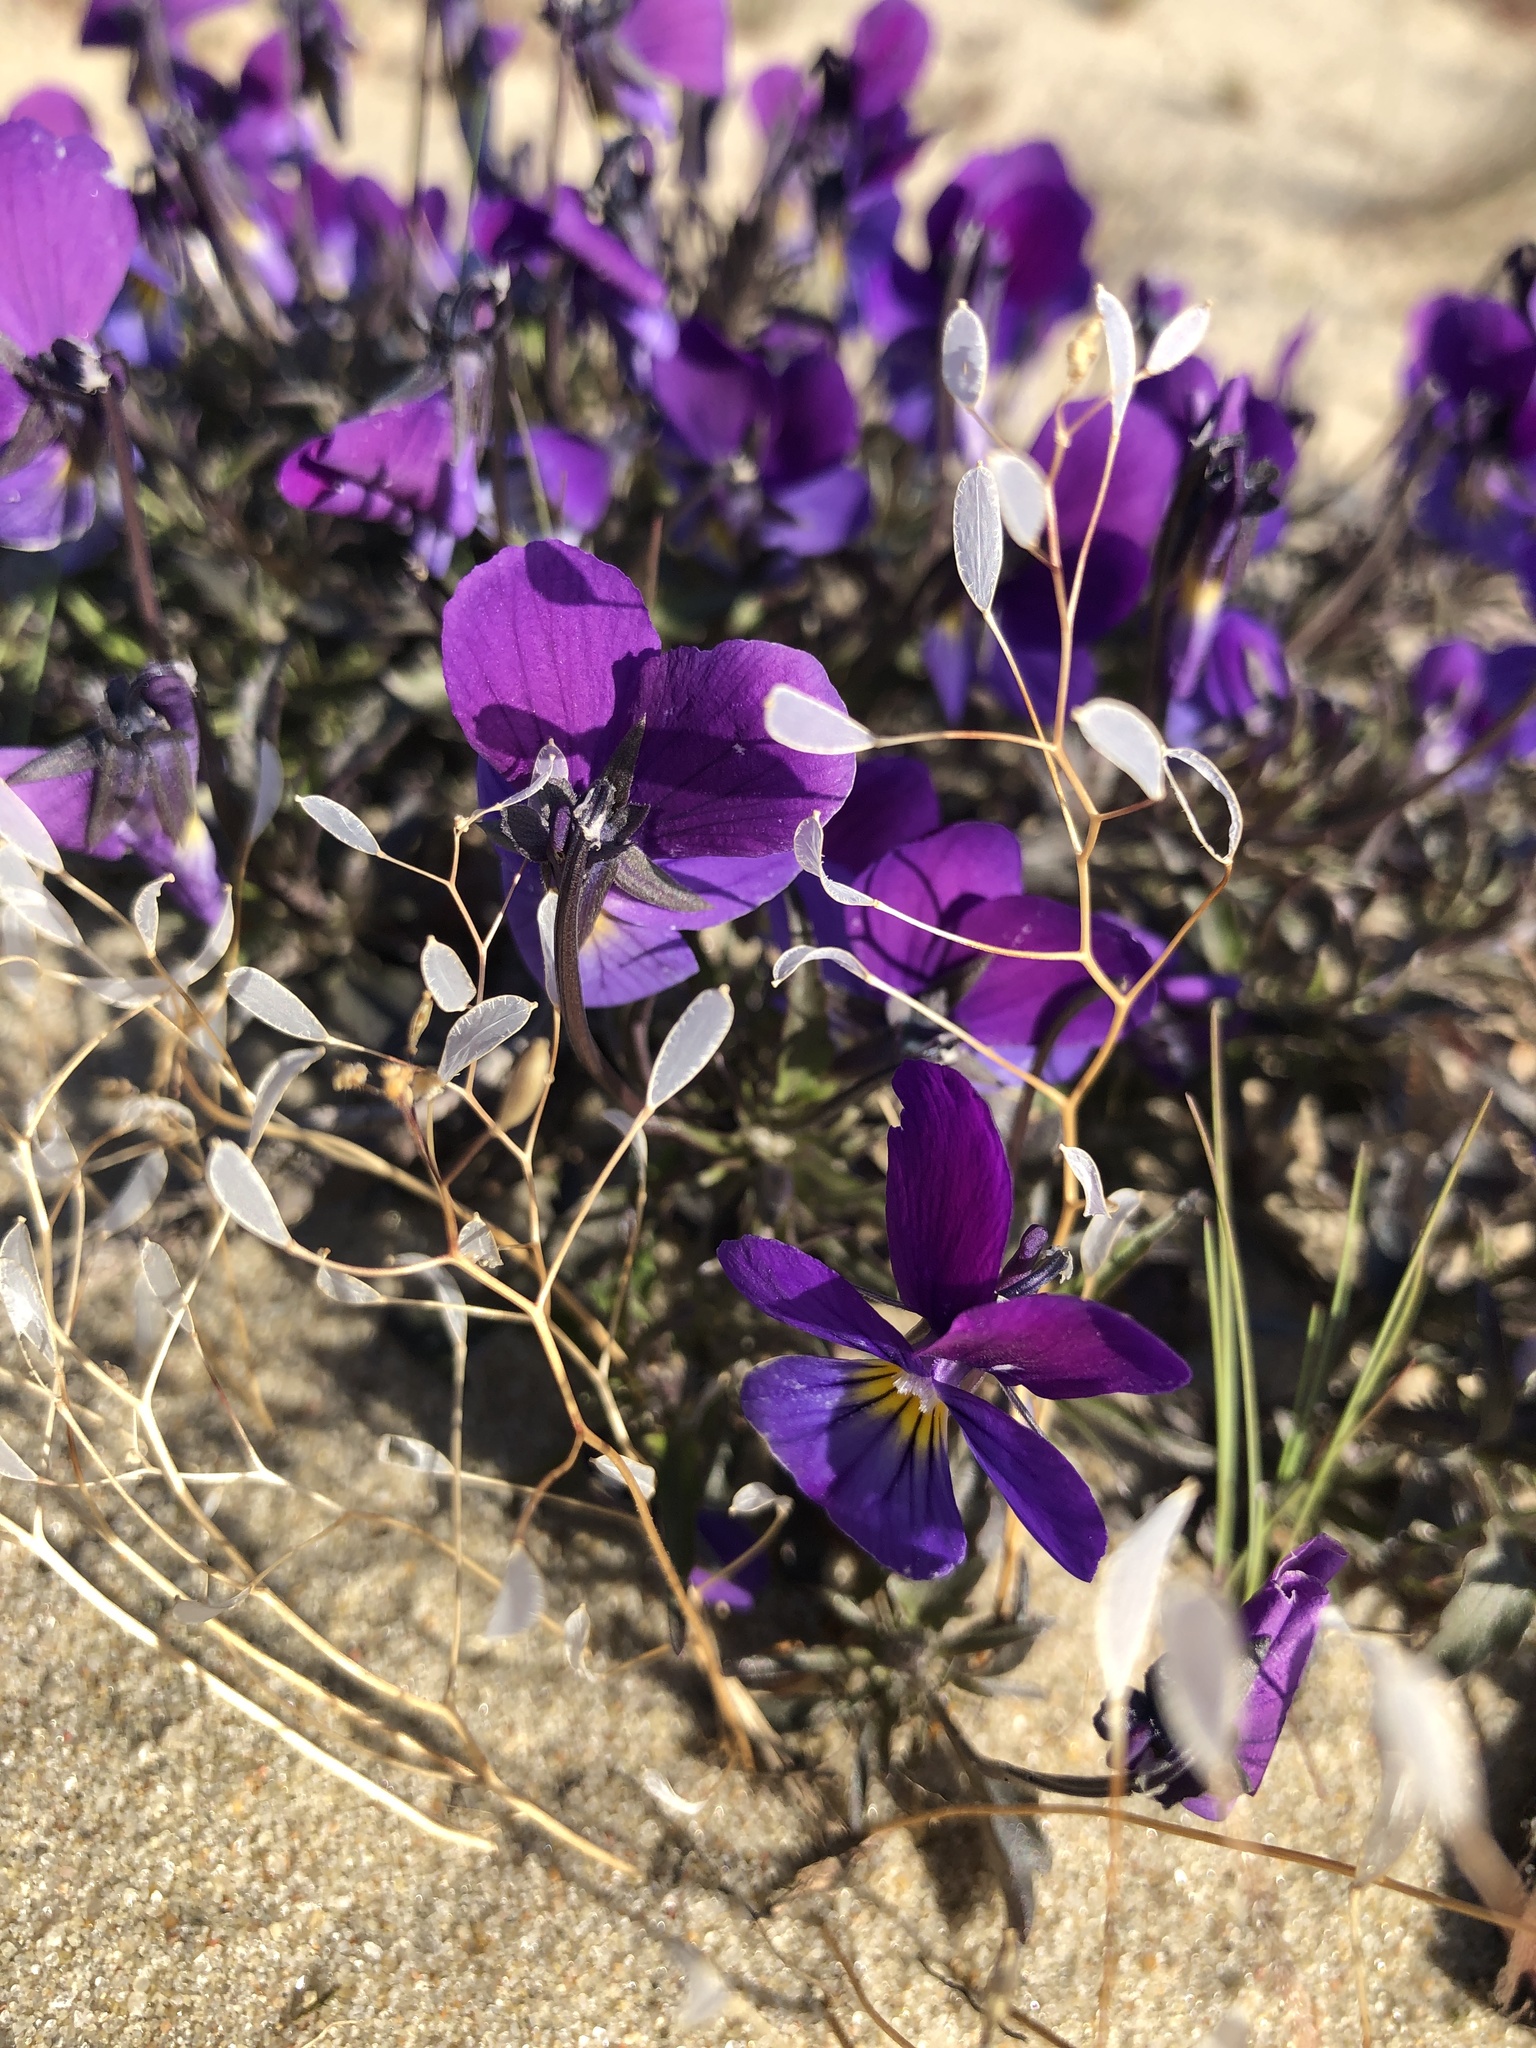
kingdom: Plantae
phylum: Tracheophyta
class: Magnoliopsida
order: Malpighiales
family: Violaceae
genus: Viola
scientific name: Viola tricolor
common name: Pansy
